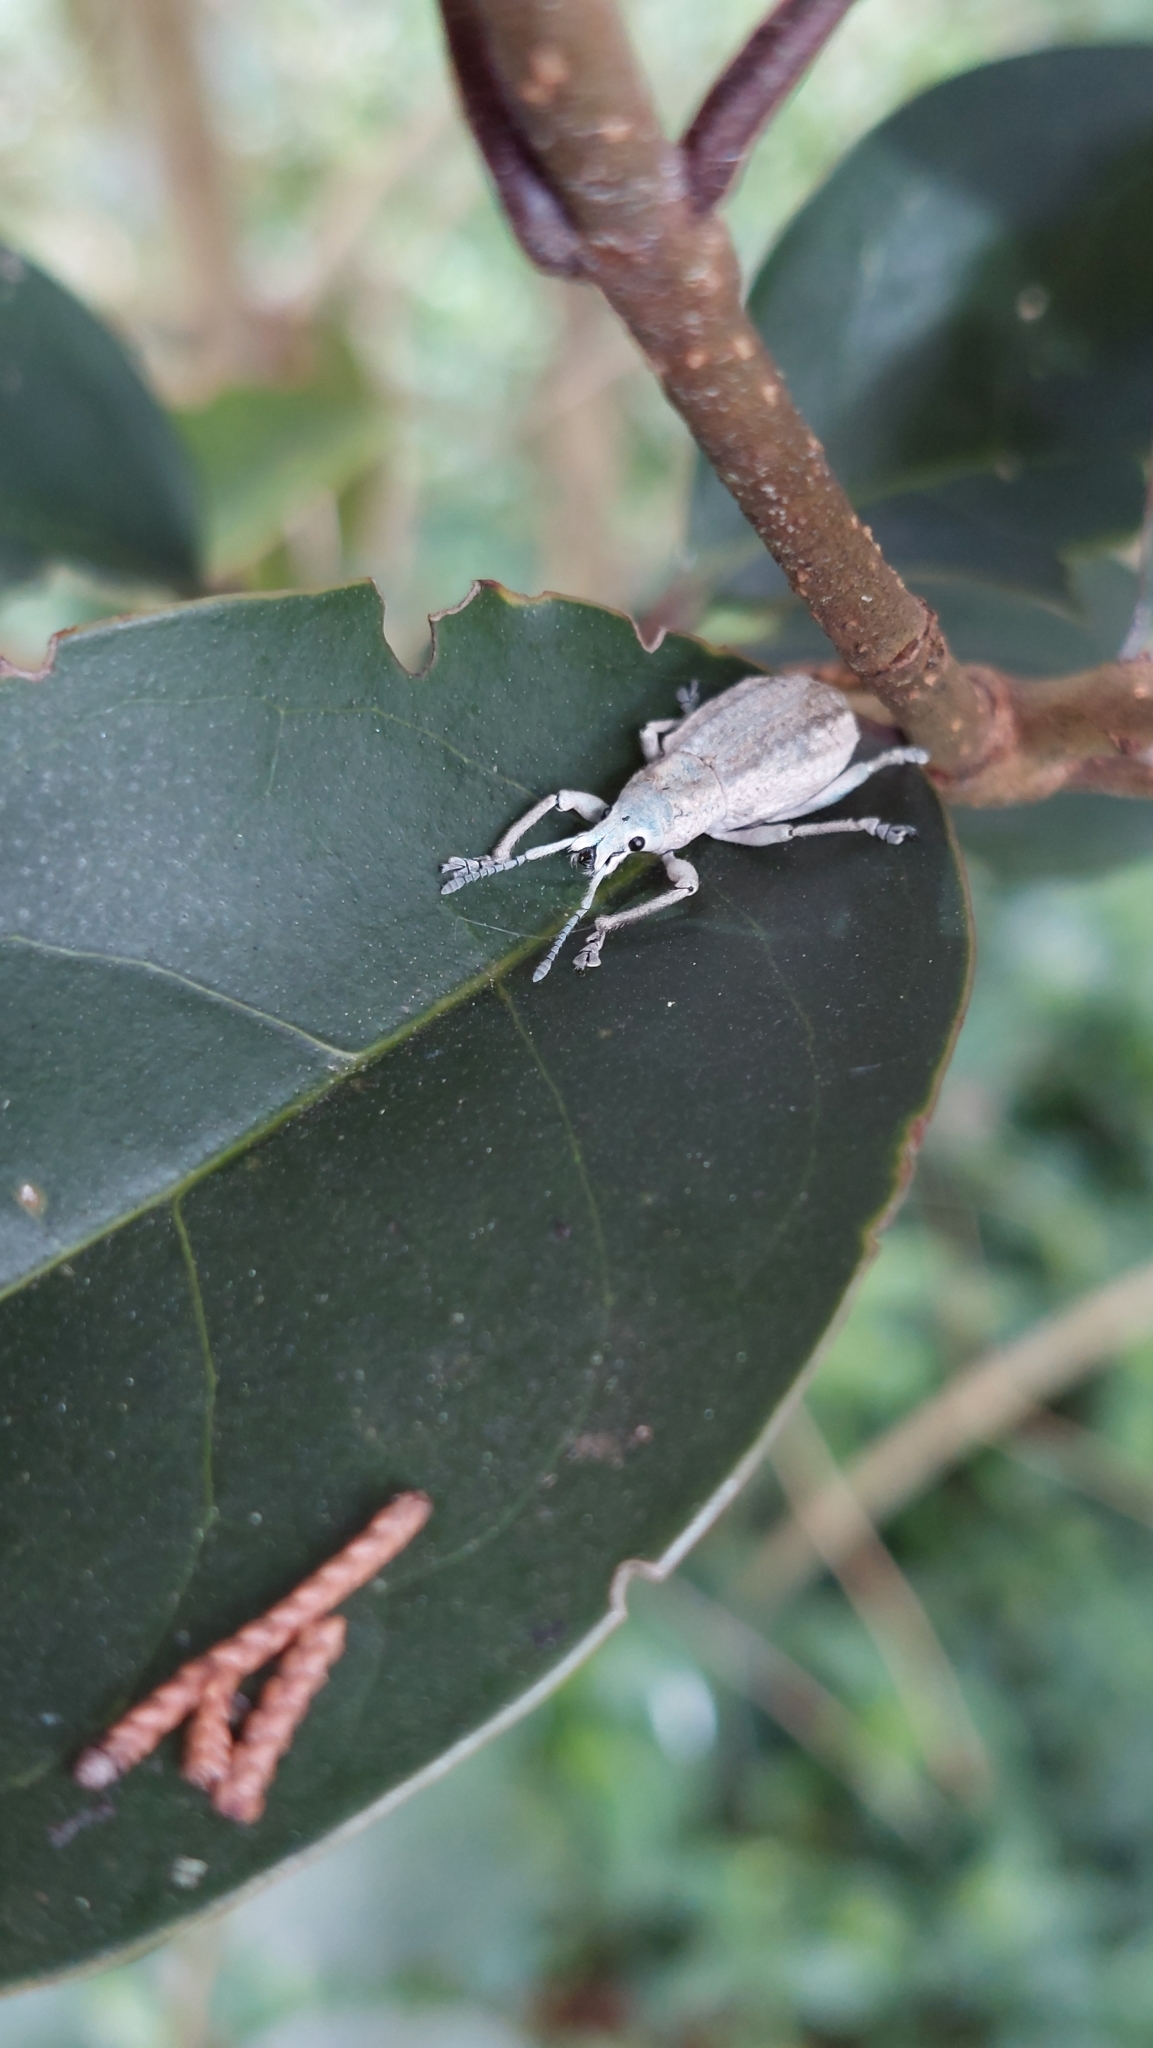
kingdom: Animalia
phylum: Arthropoda
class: Insecta
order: Coleoptera
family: Curculionidae
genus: Compsus
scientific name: Compsus canescens
